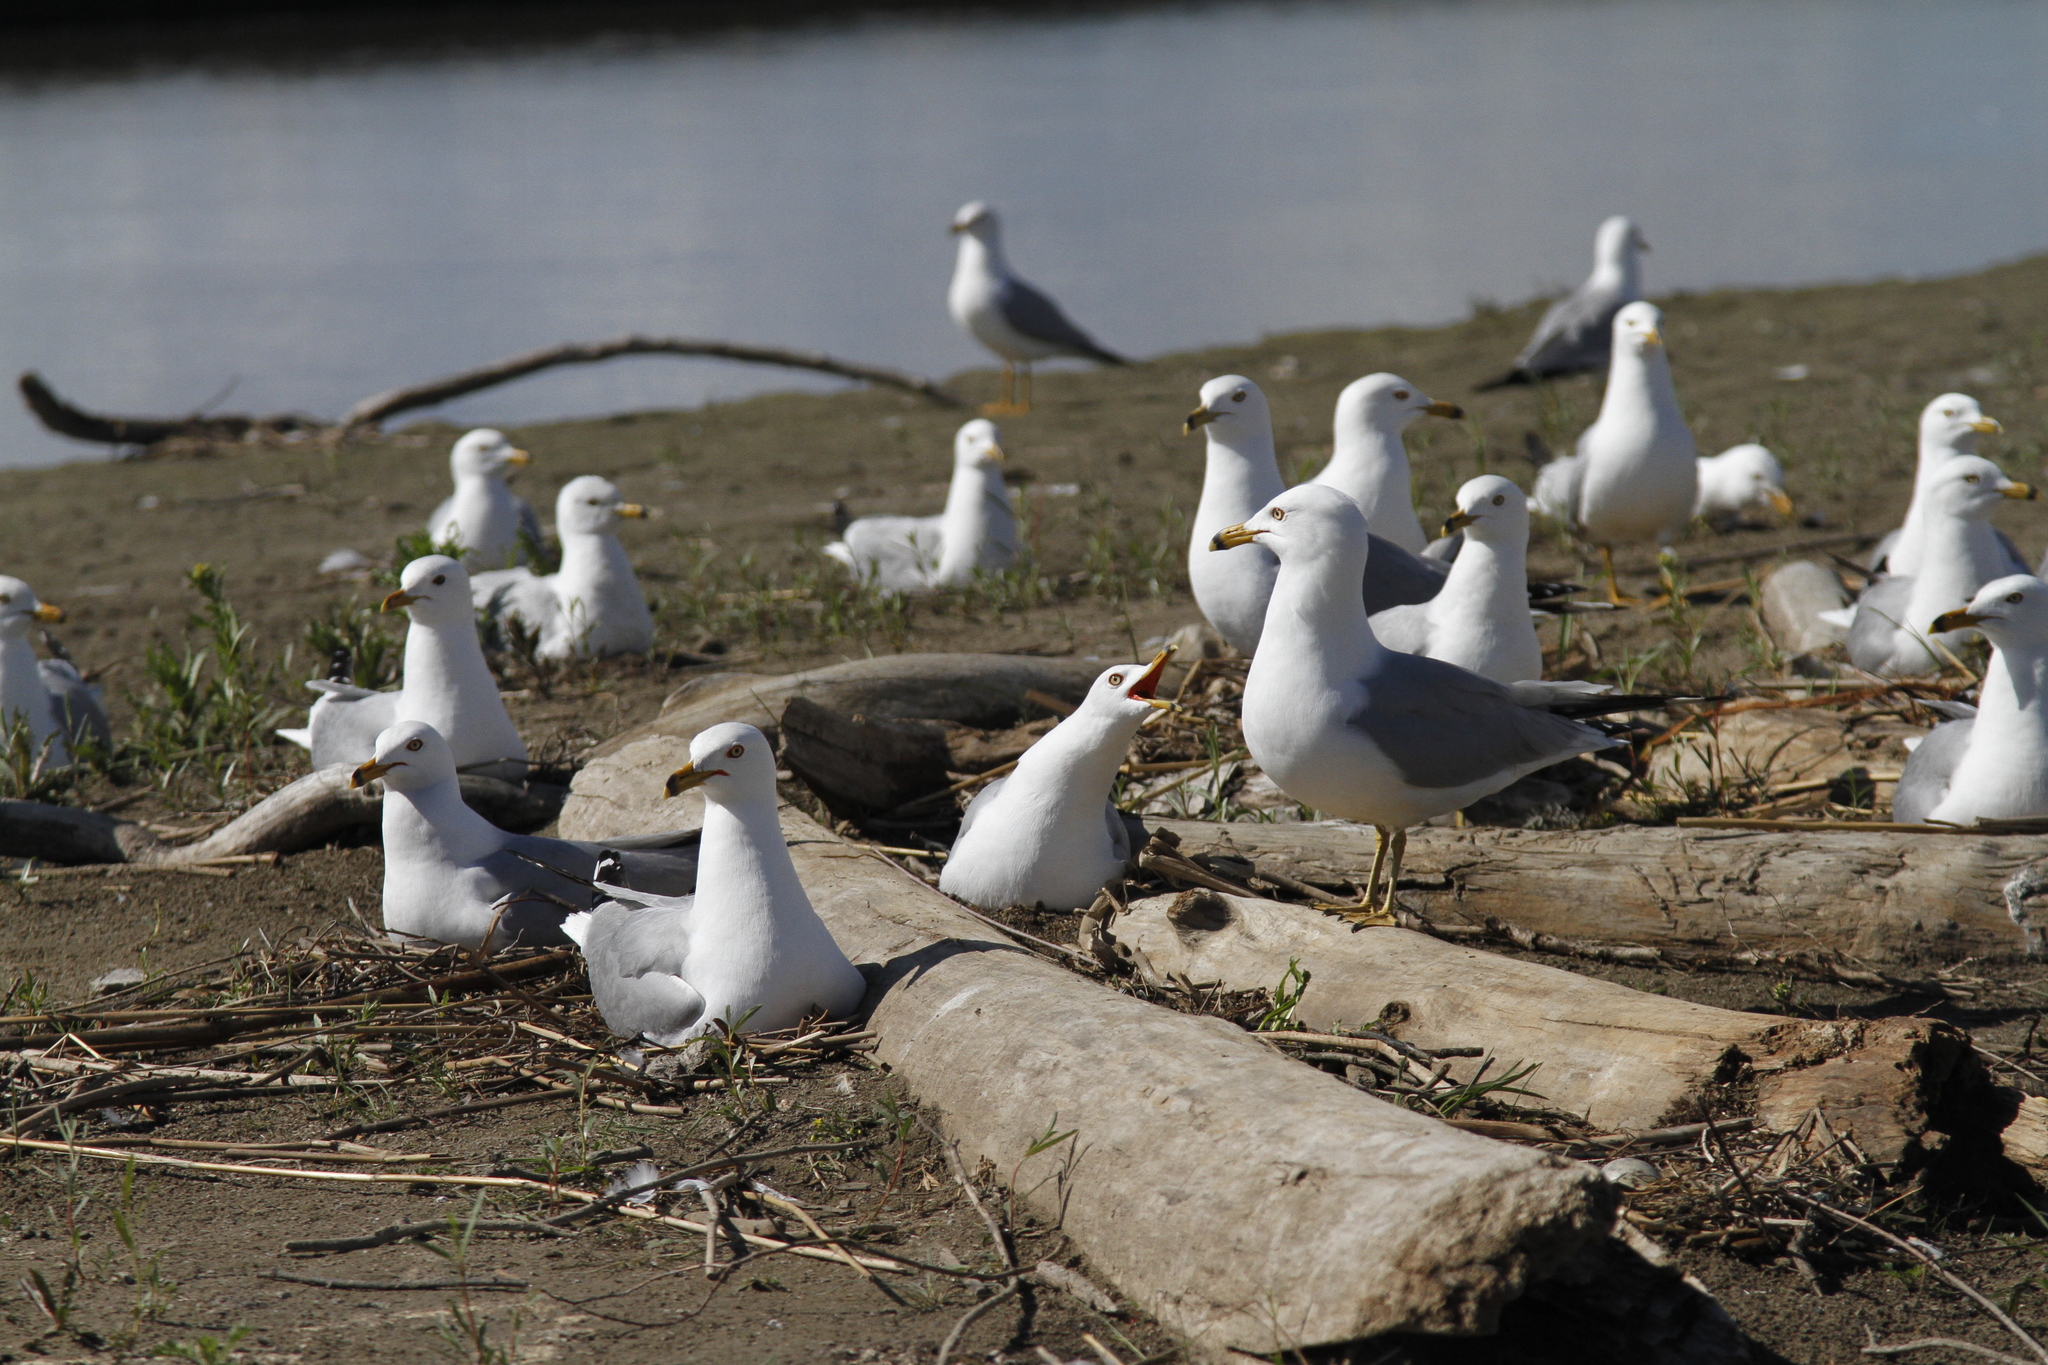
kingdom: Animalia
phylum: Chordata
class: Aves
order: Charadriiformes
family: Laridae
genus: Larus
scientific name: Larus delawarensis
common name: Ring-billed gull
